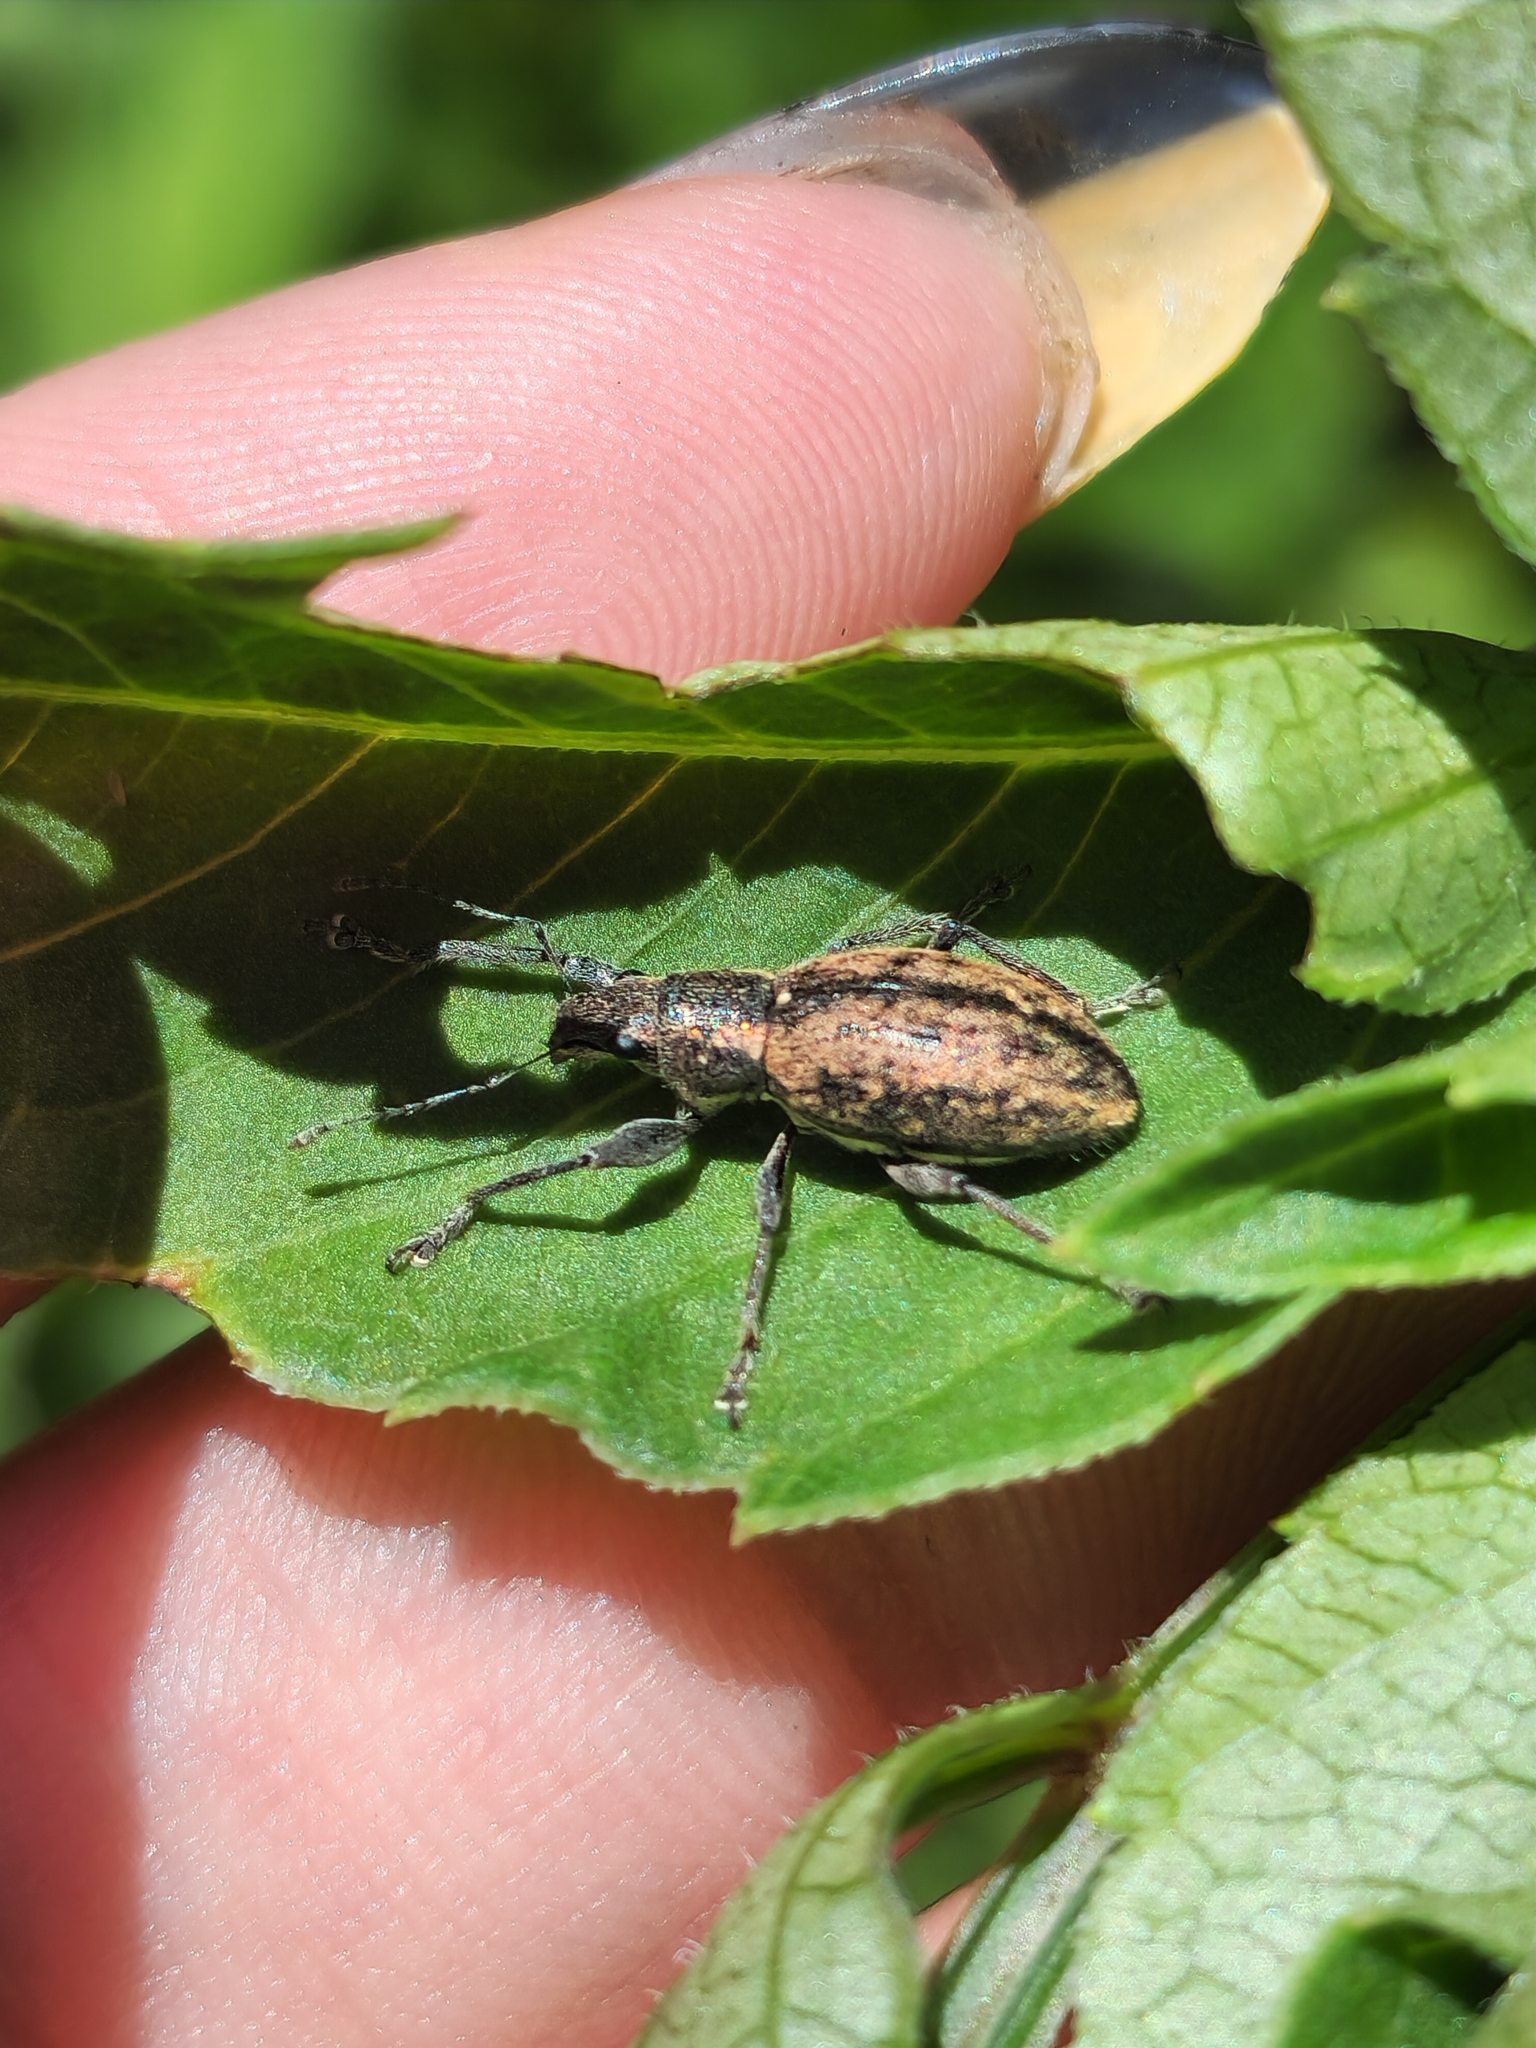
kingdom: Animalia
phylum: Arthropoda
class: Insecta
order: Coleoptera
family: Curculionidae
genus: Naupactus
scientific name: Naupactus versatilis
